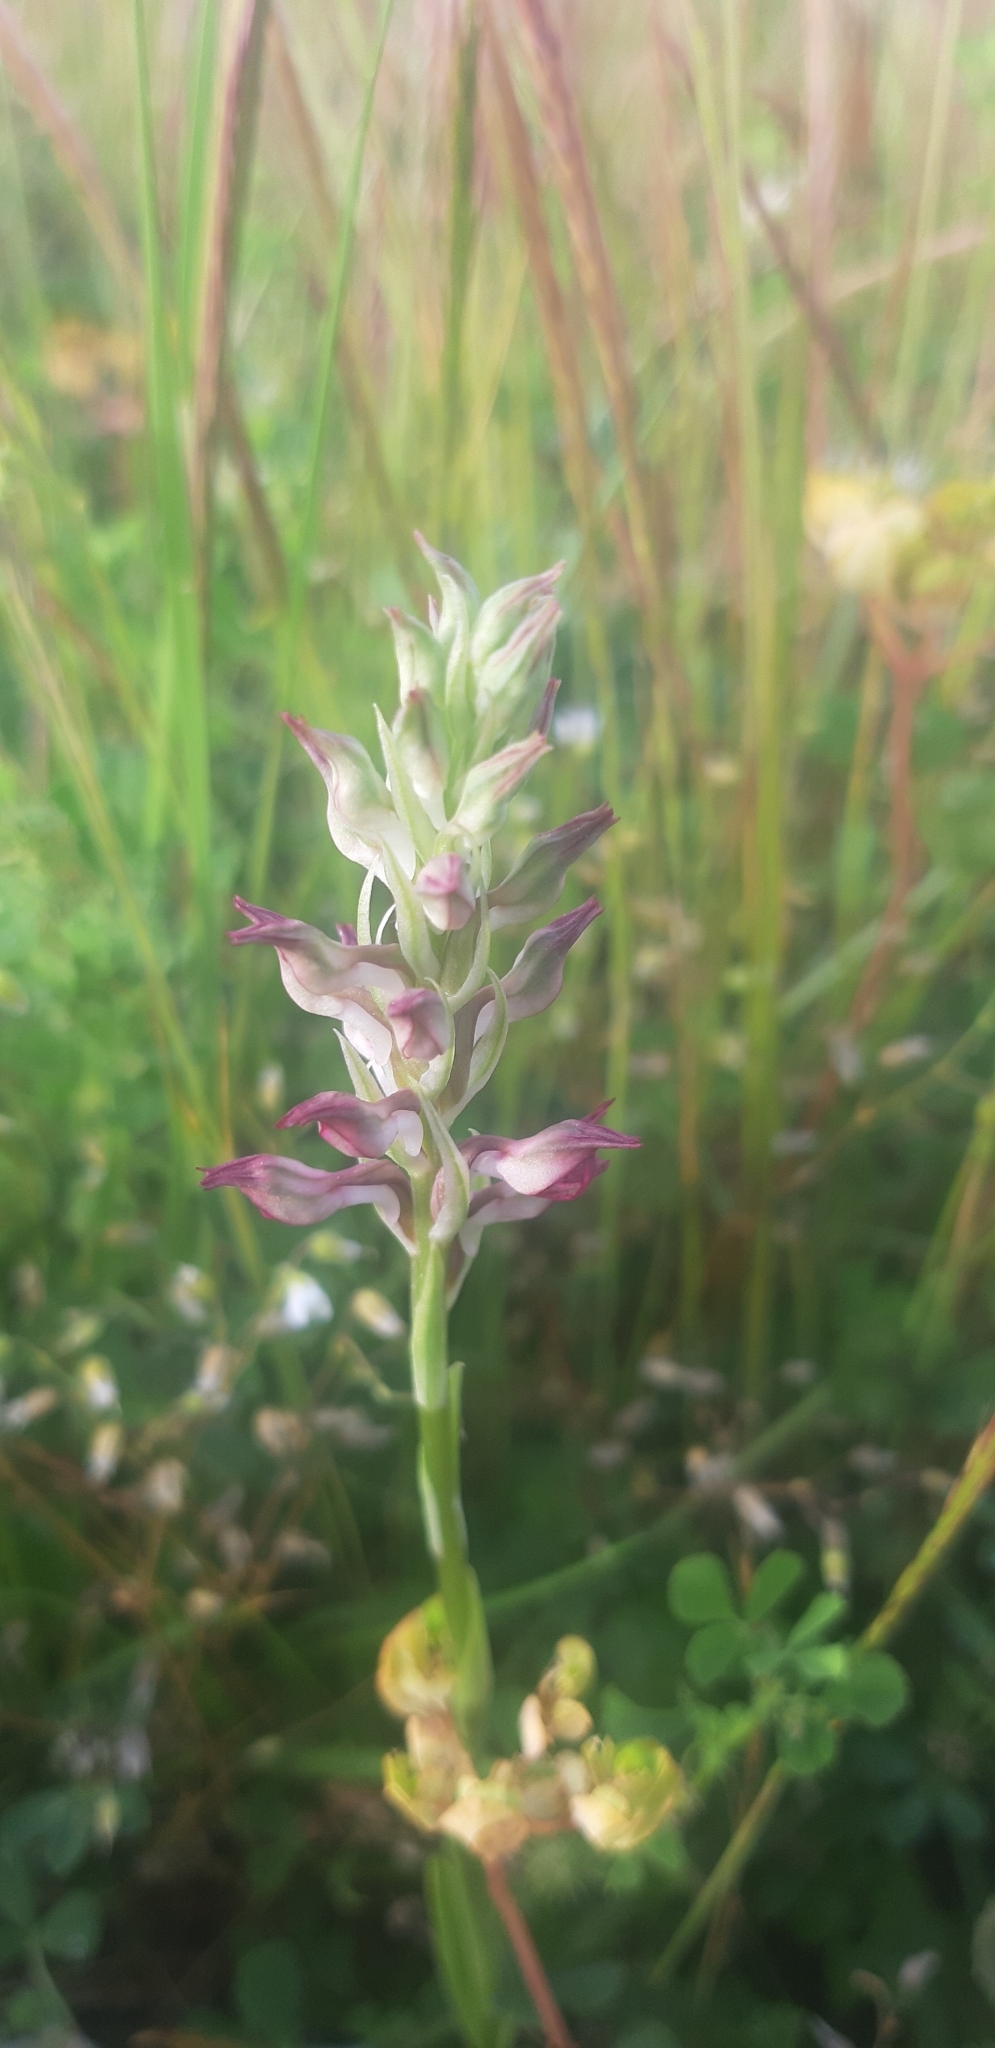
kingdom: Plantae
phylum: Tracheophyta
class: Liliopsida
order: Asparagales
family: Orchidaceae
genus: Anacamptis
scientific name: Anacamptis coriophora
